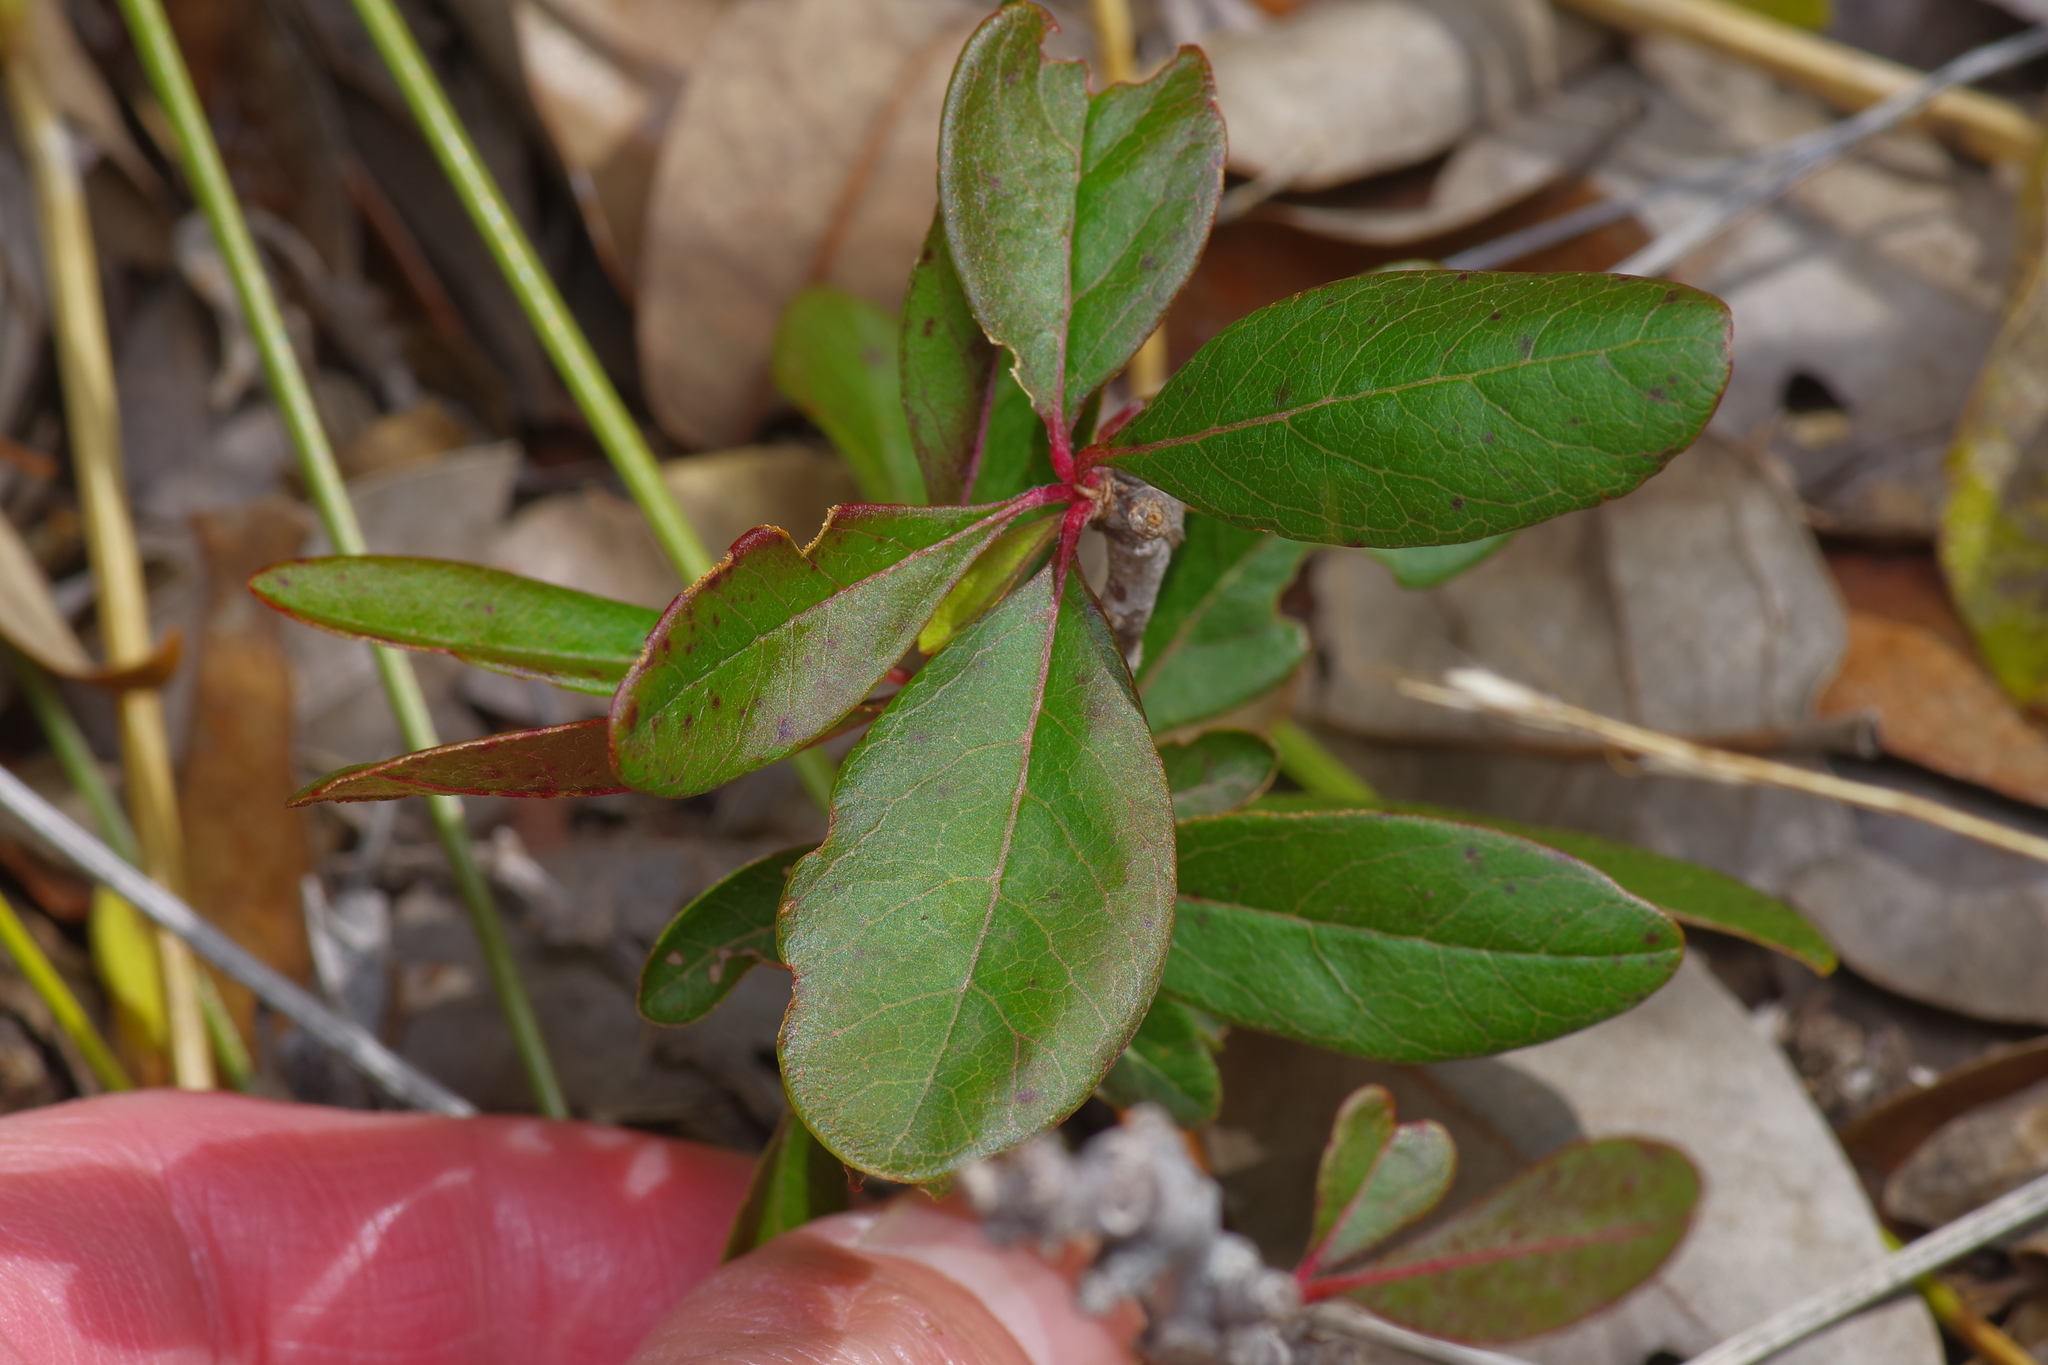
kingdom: Plantae
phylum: Tracheophyta
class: Magnoliopsida
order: Ericales
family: Sapotaceae
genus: Sideroxylon
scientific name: Sideroxylon lanuginosum
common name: Chittamwood
